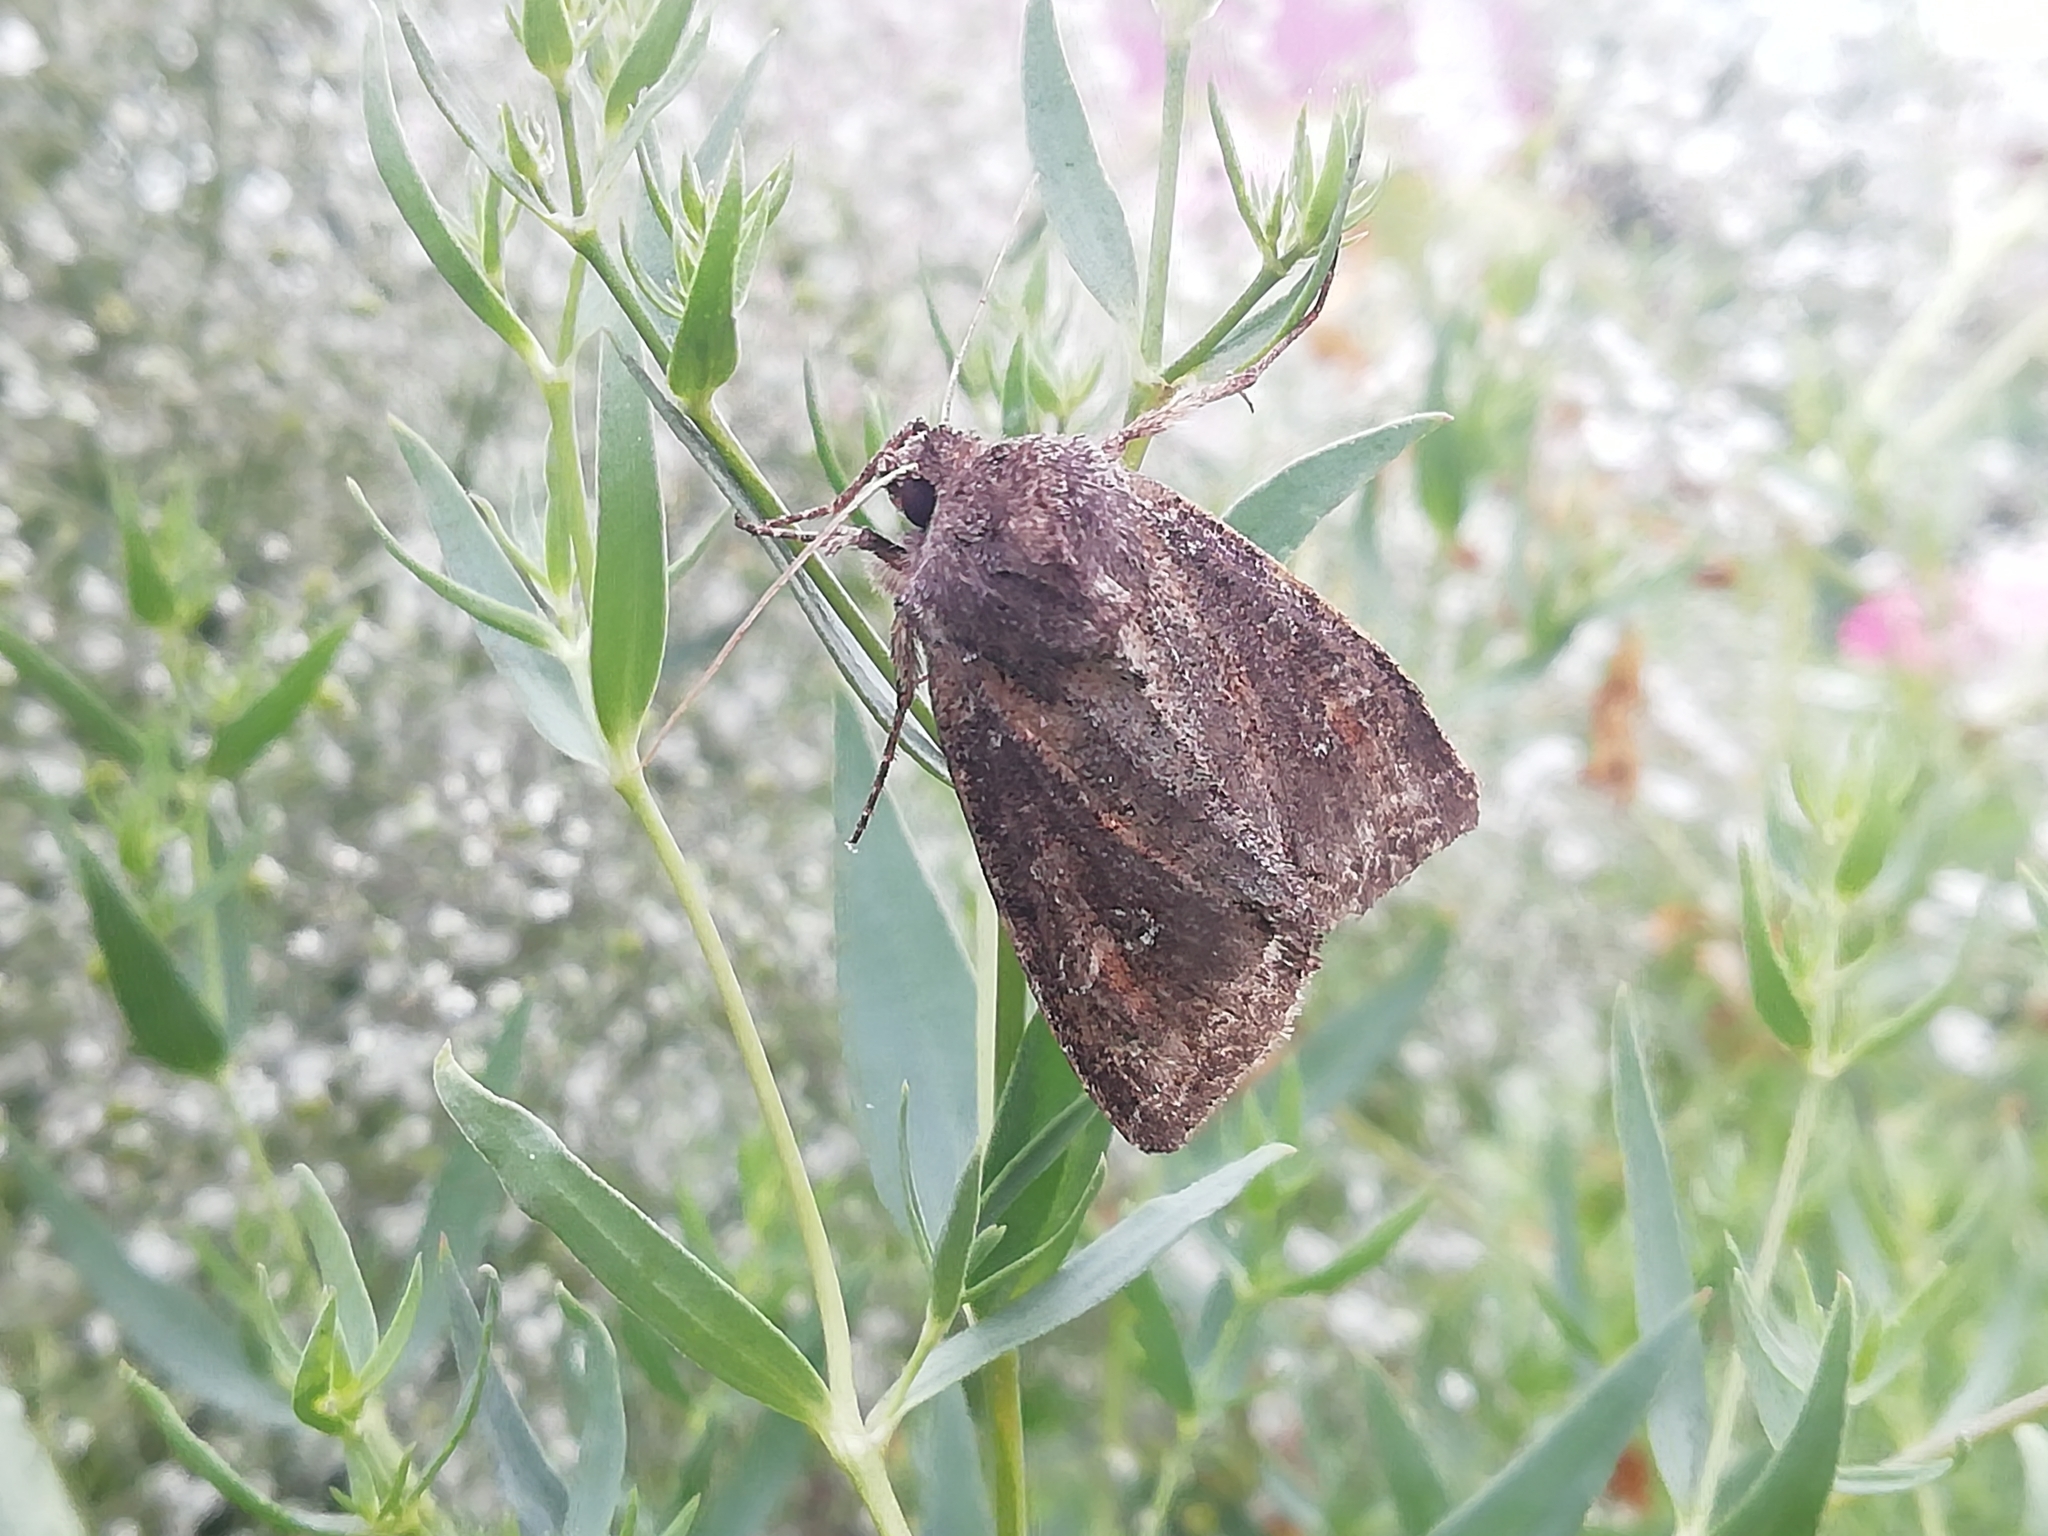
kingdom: Animalia
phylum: Arthropoda
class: Insecta
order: Lepidoptera
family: Noctuidae
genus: Polia
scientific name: Polia bombycina
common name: Pale shining brown
